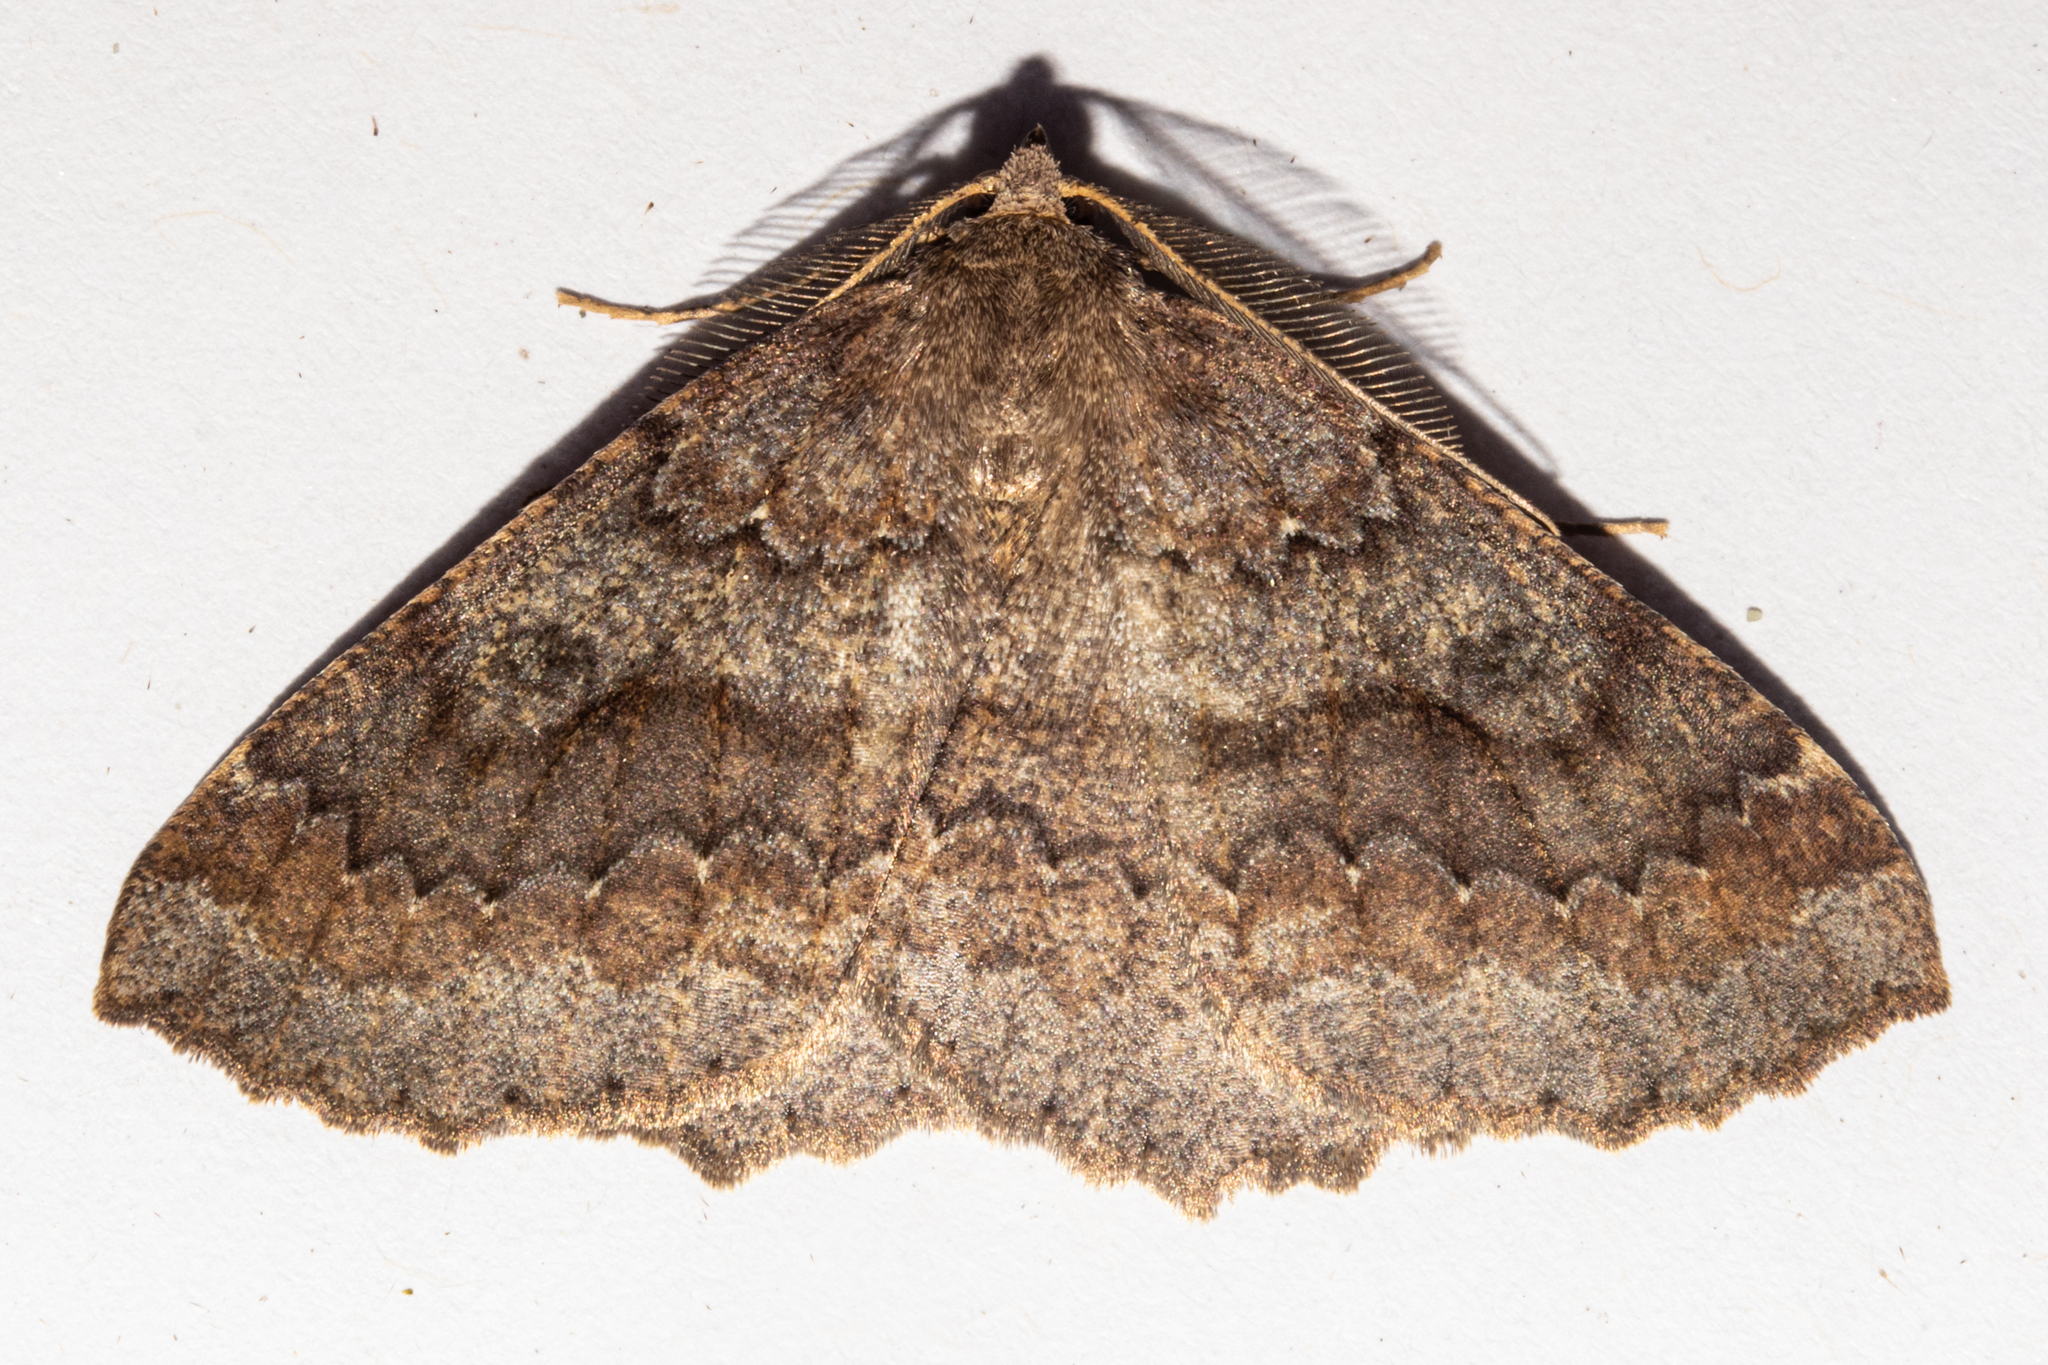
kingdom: Animalia
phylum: Arthropoda
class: Insecta
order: Lepidoptera
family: Geometridae
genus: Cleora
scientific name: Cleora scriptaria
